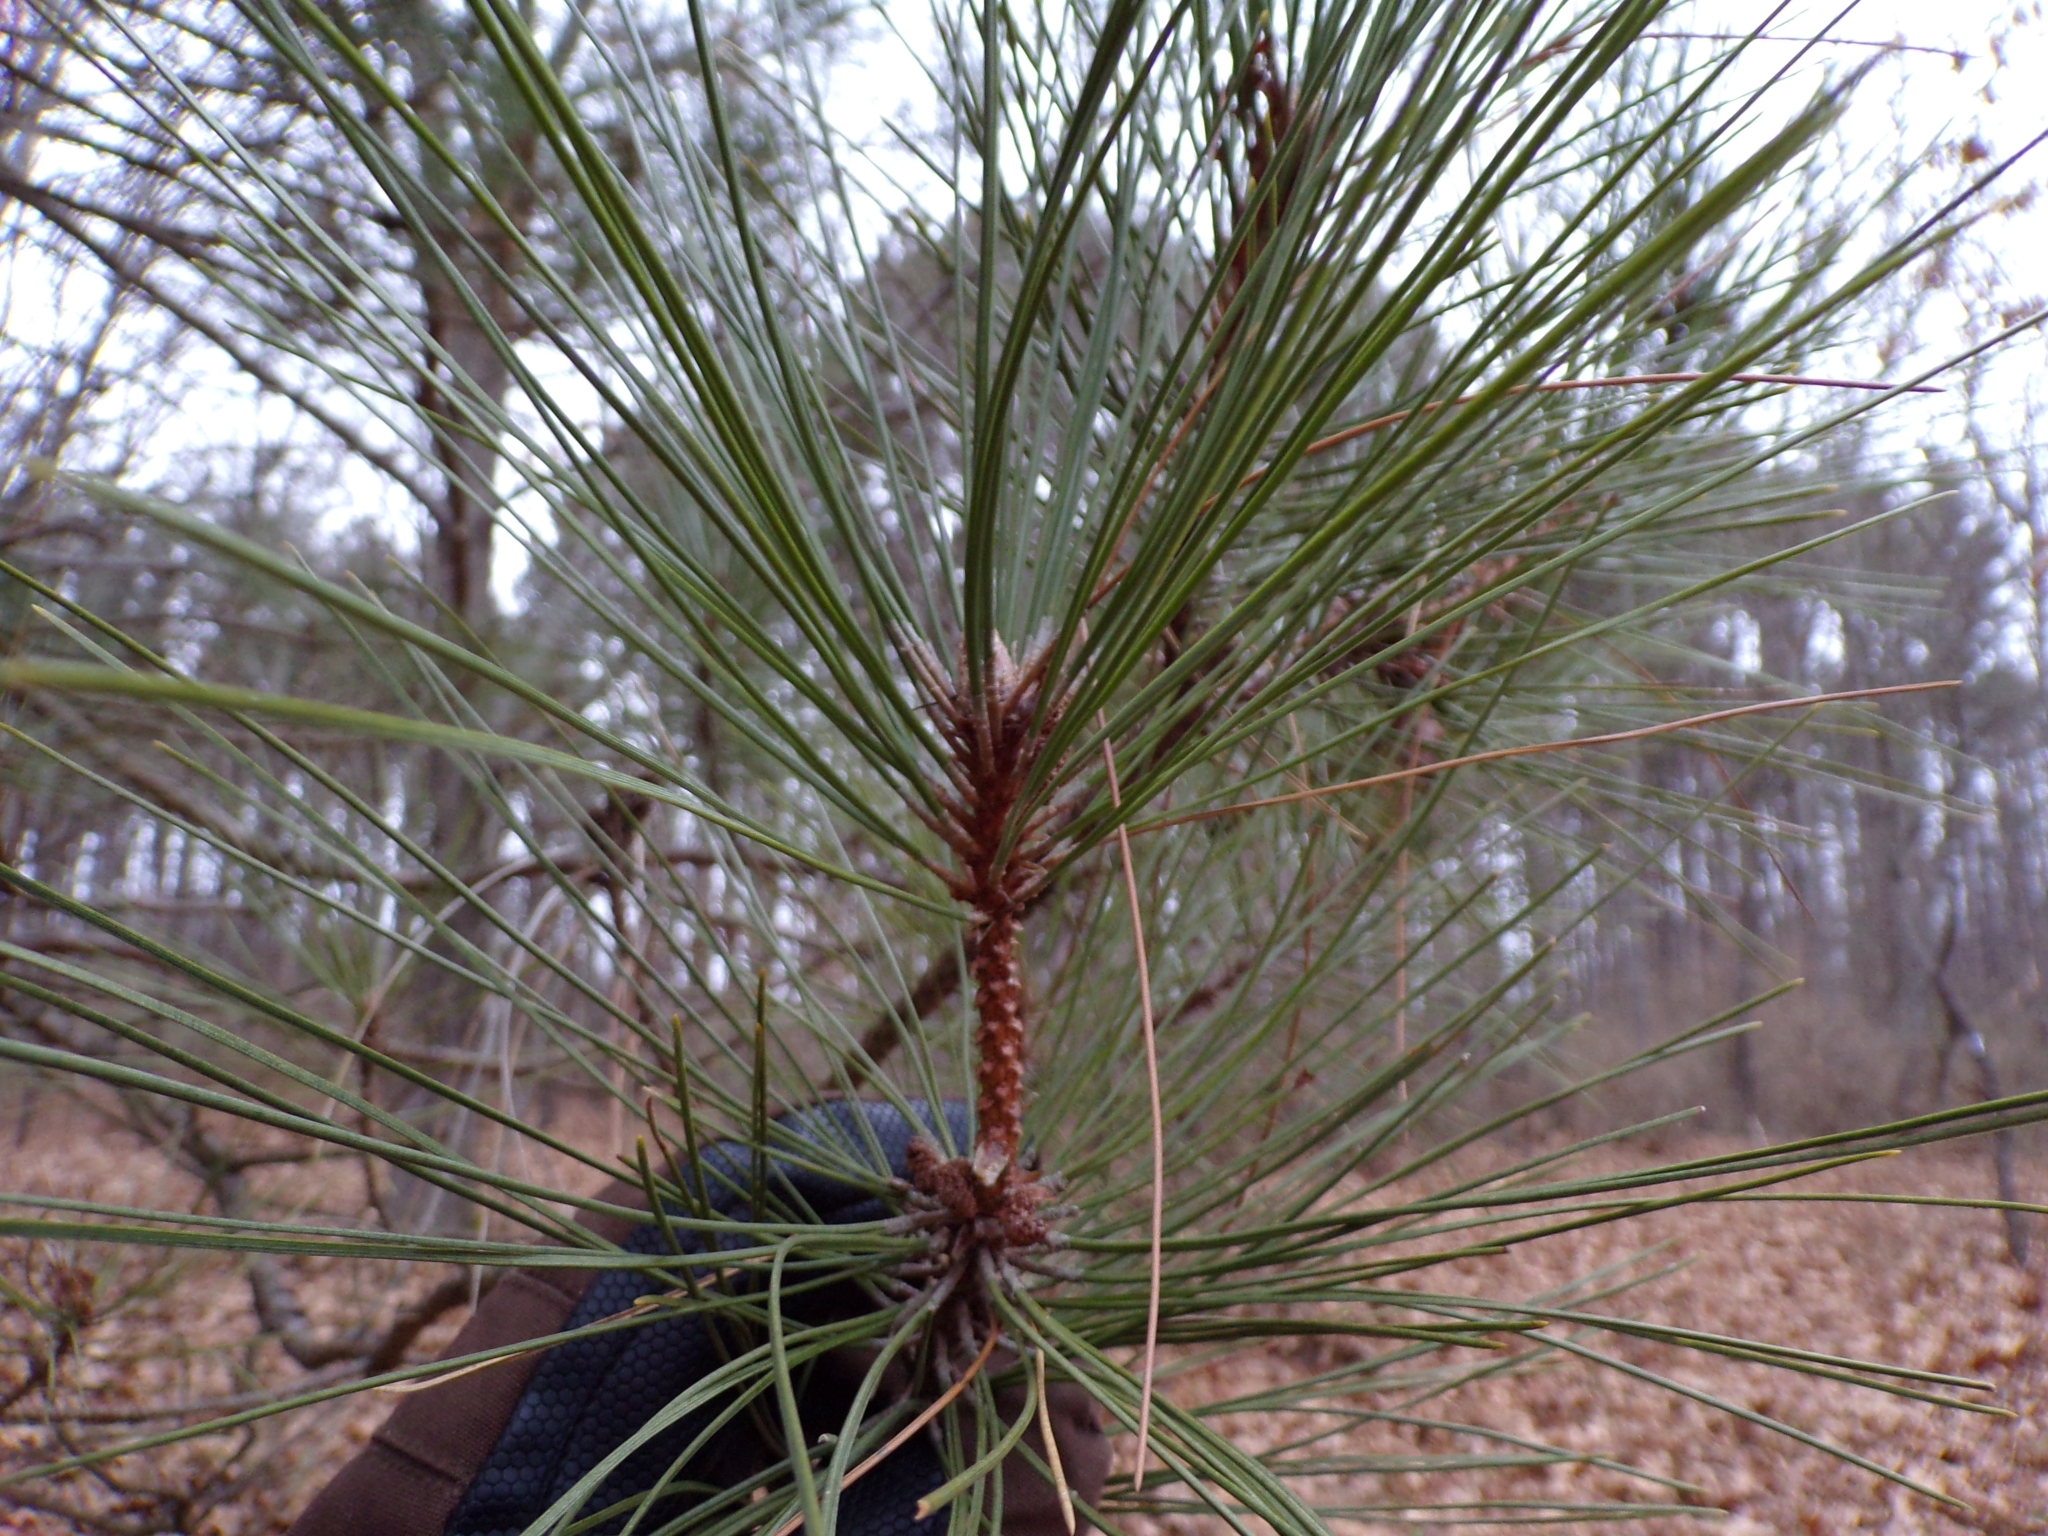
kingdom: Plantae
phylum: Tracheophyta
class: Pinopsida
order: Pinales
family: Pinaceae
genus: Pinus
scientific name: Pinus resinosa
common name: Norway pine
